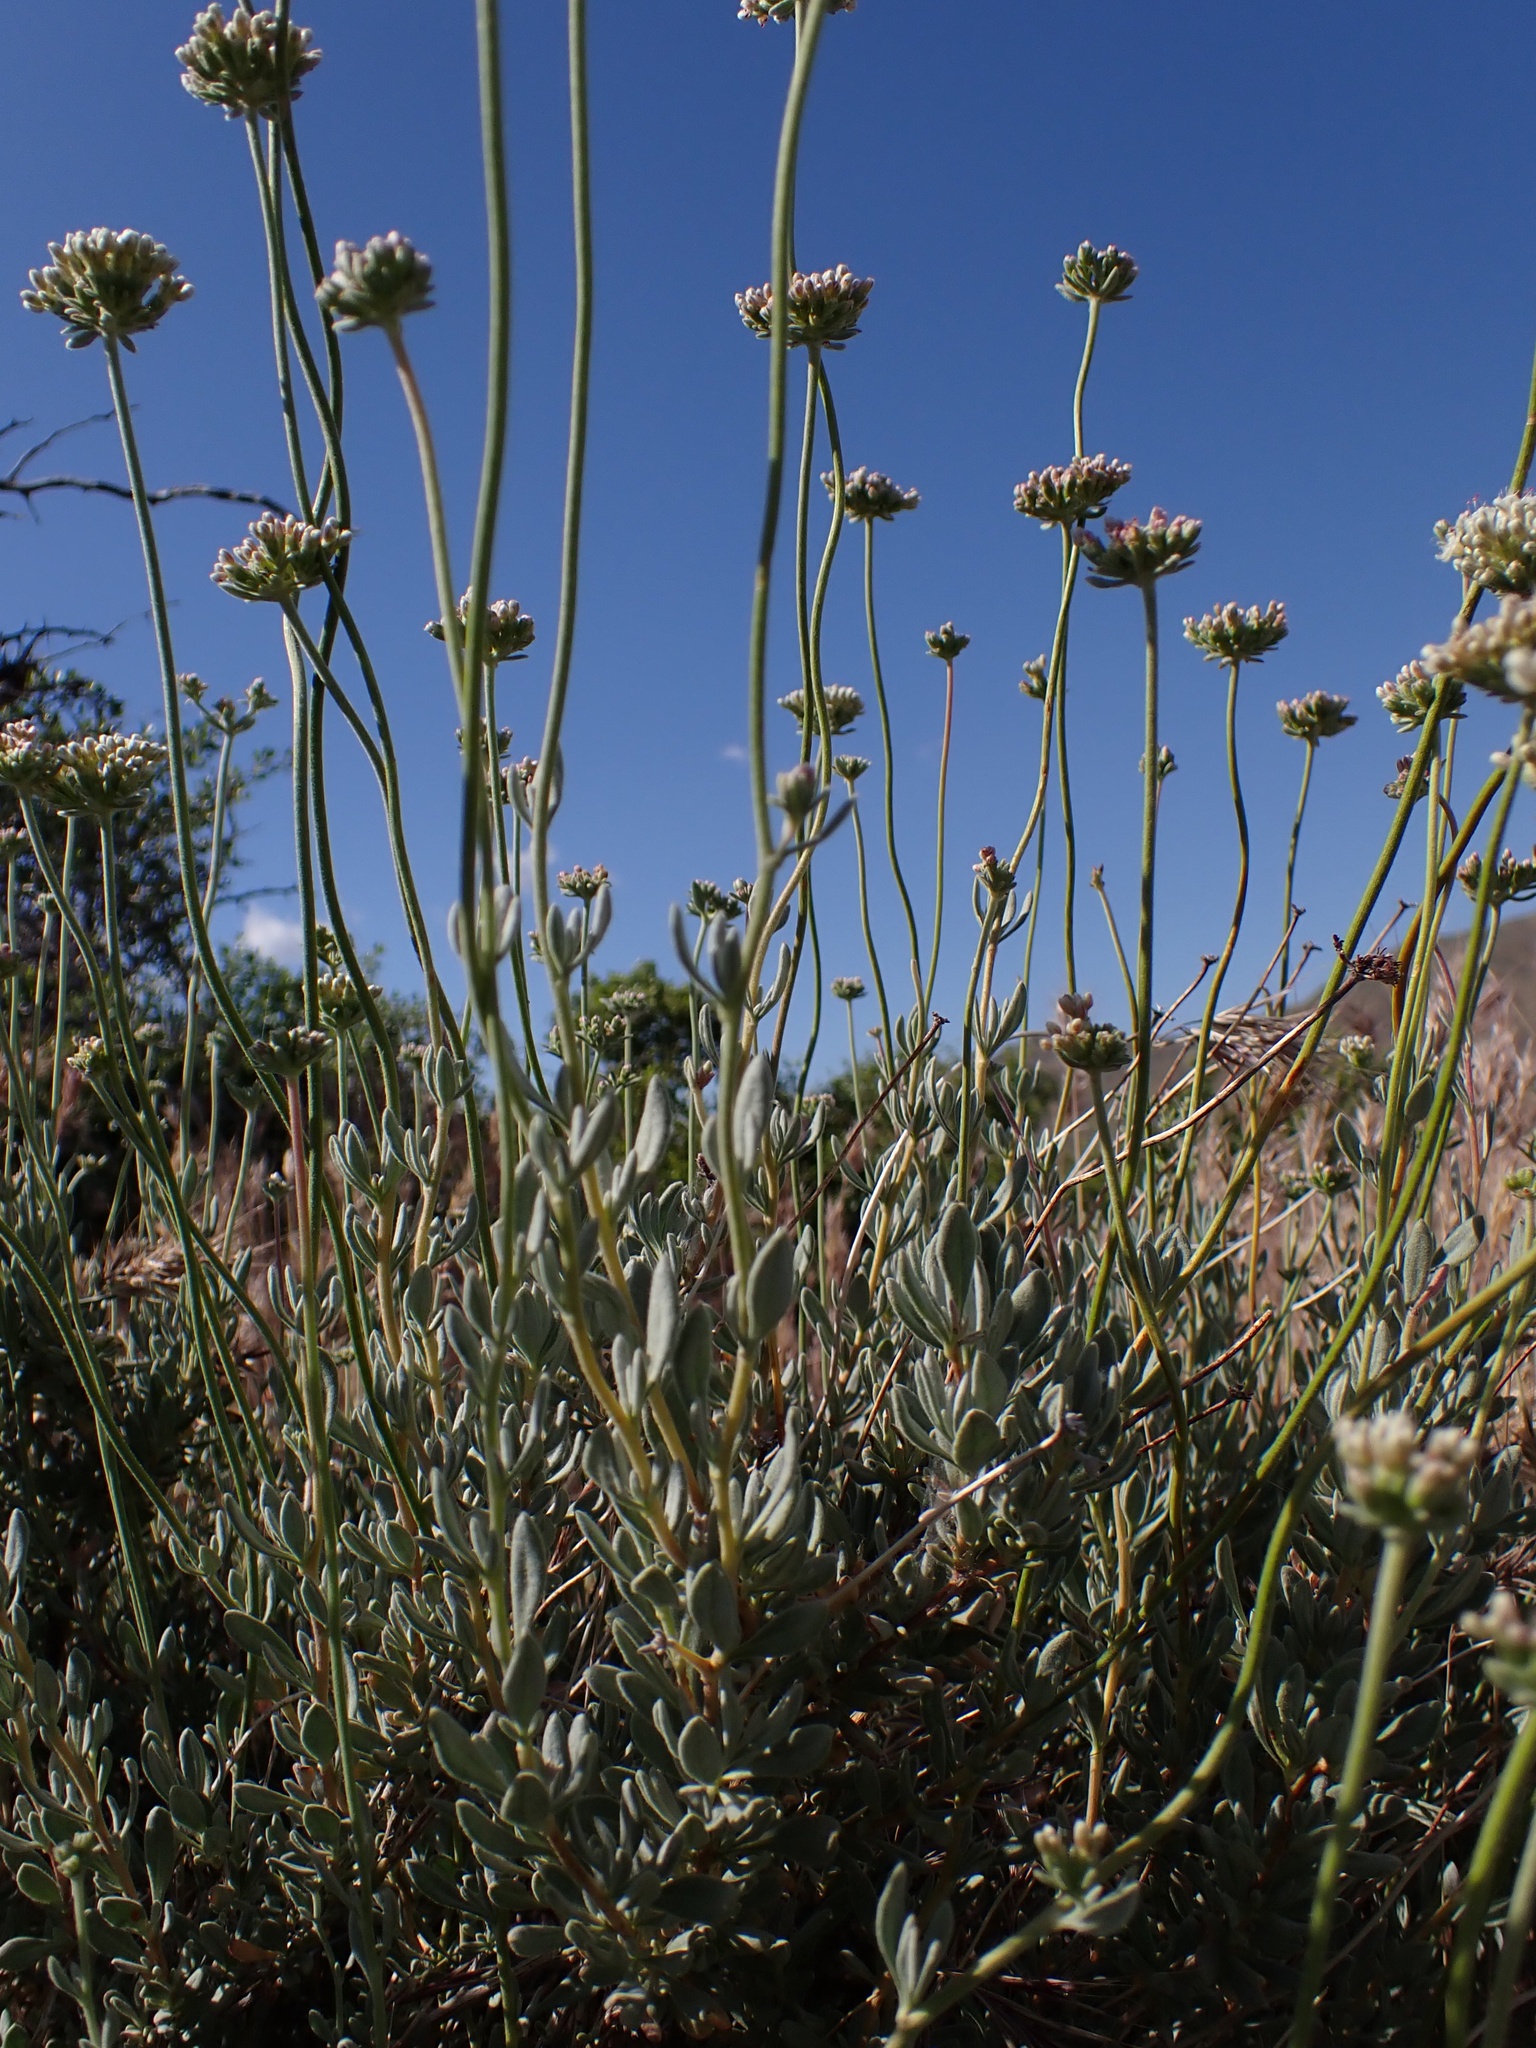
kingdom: Plantae
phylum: Tracheophyta
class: Magnoliopsida
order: Caryophyllales
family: Polygonaceae
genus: Eriogonum
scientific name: Eriogonum fasciculatum
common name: California wild buckwheat
